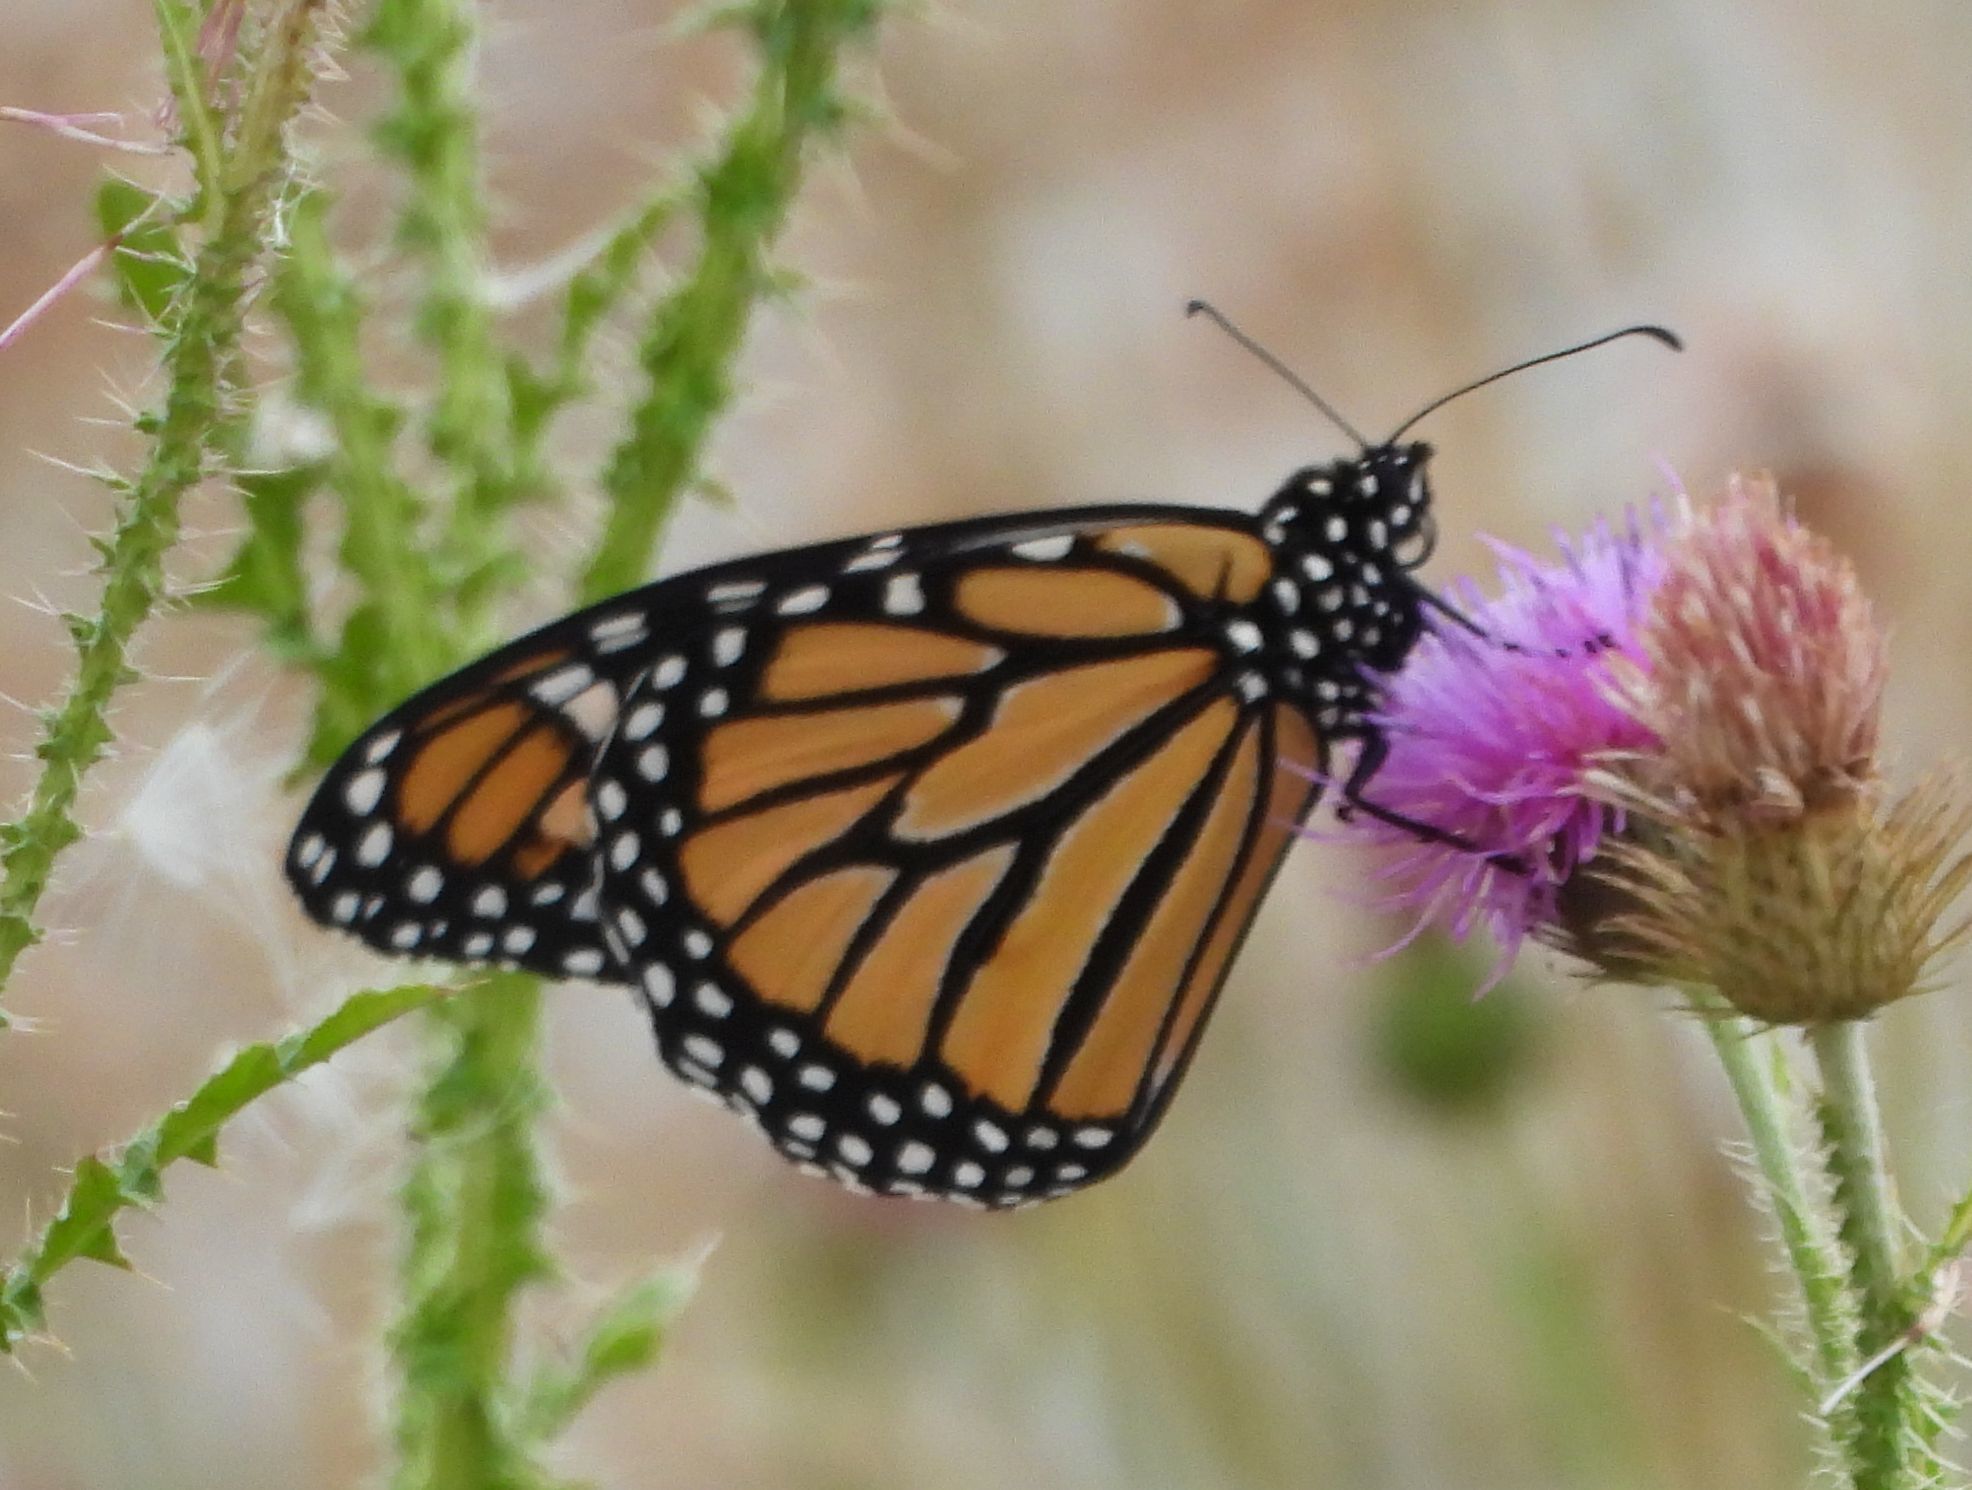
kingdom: Animalia
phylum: Arthropoda
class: Insecta
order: Lepidoptera
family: Nymphalidae
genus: Danaus
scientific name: Danaus plexippus
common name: Monarch
